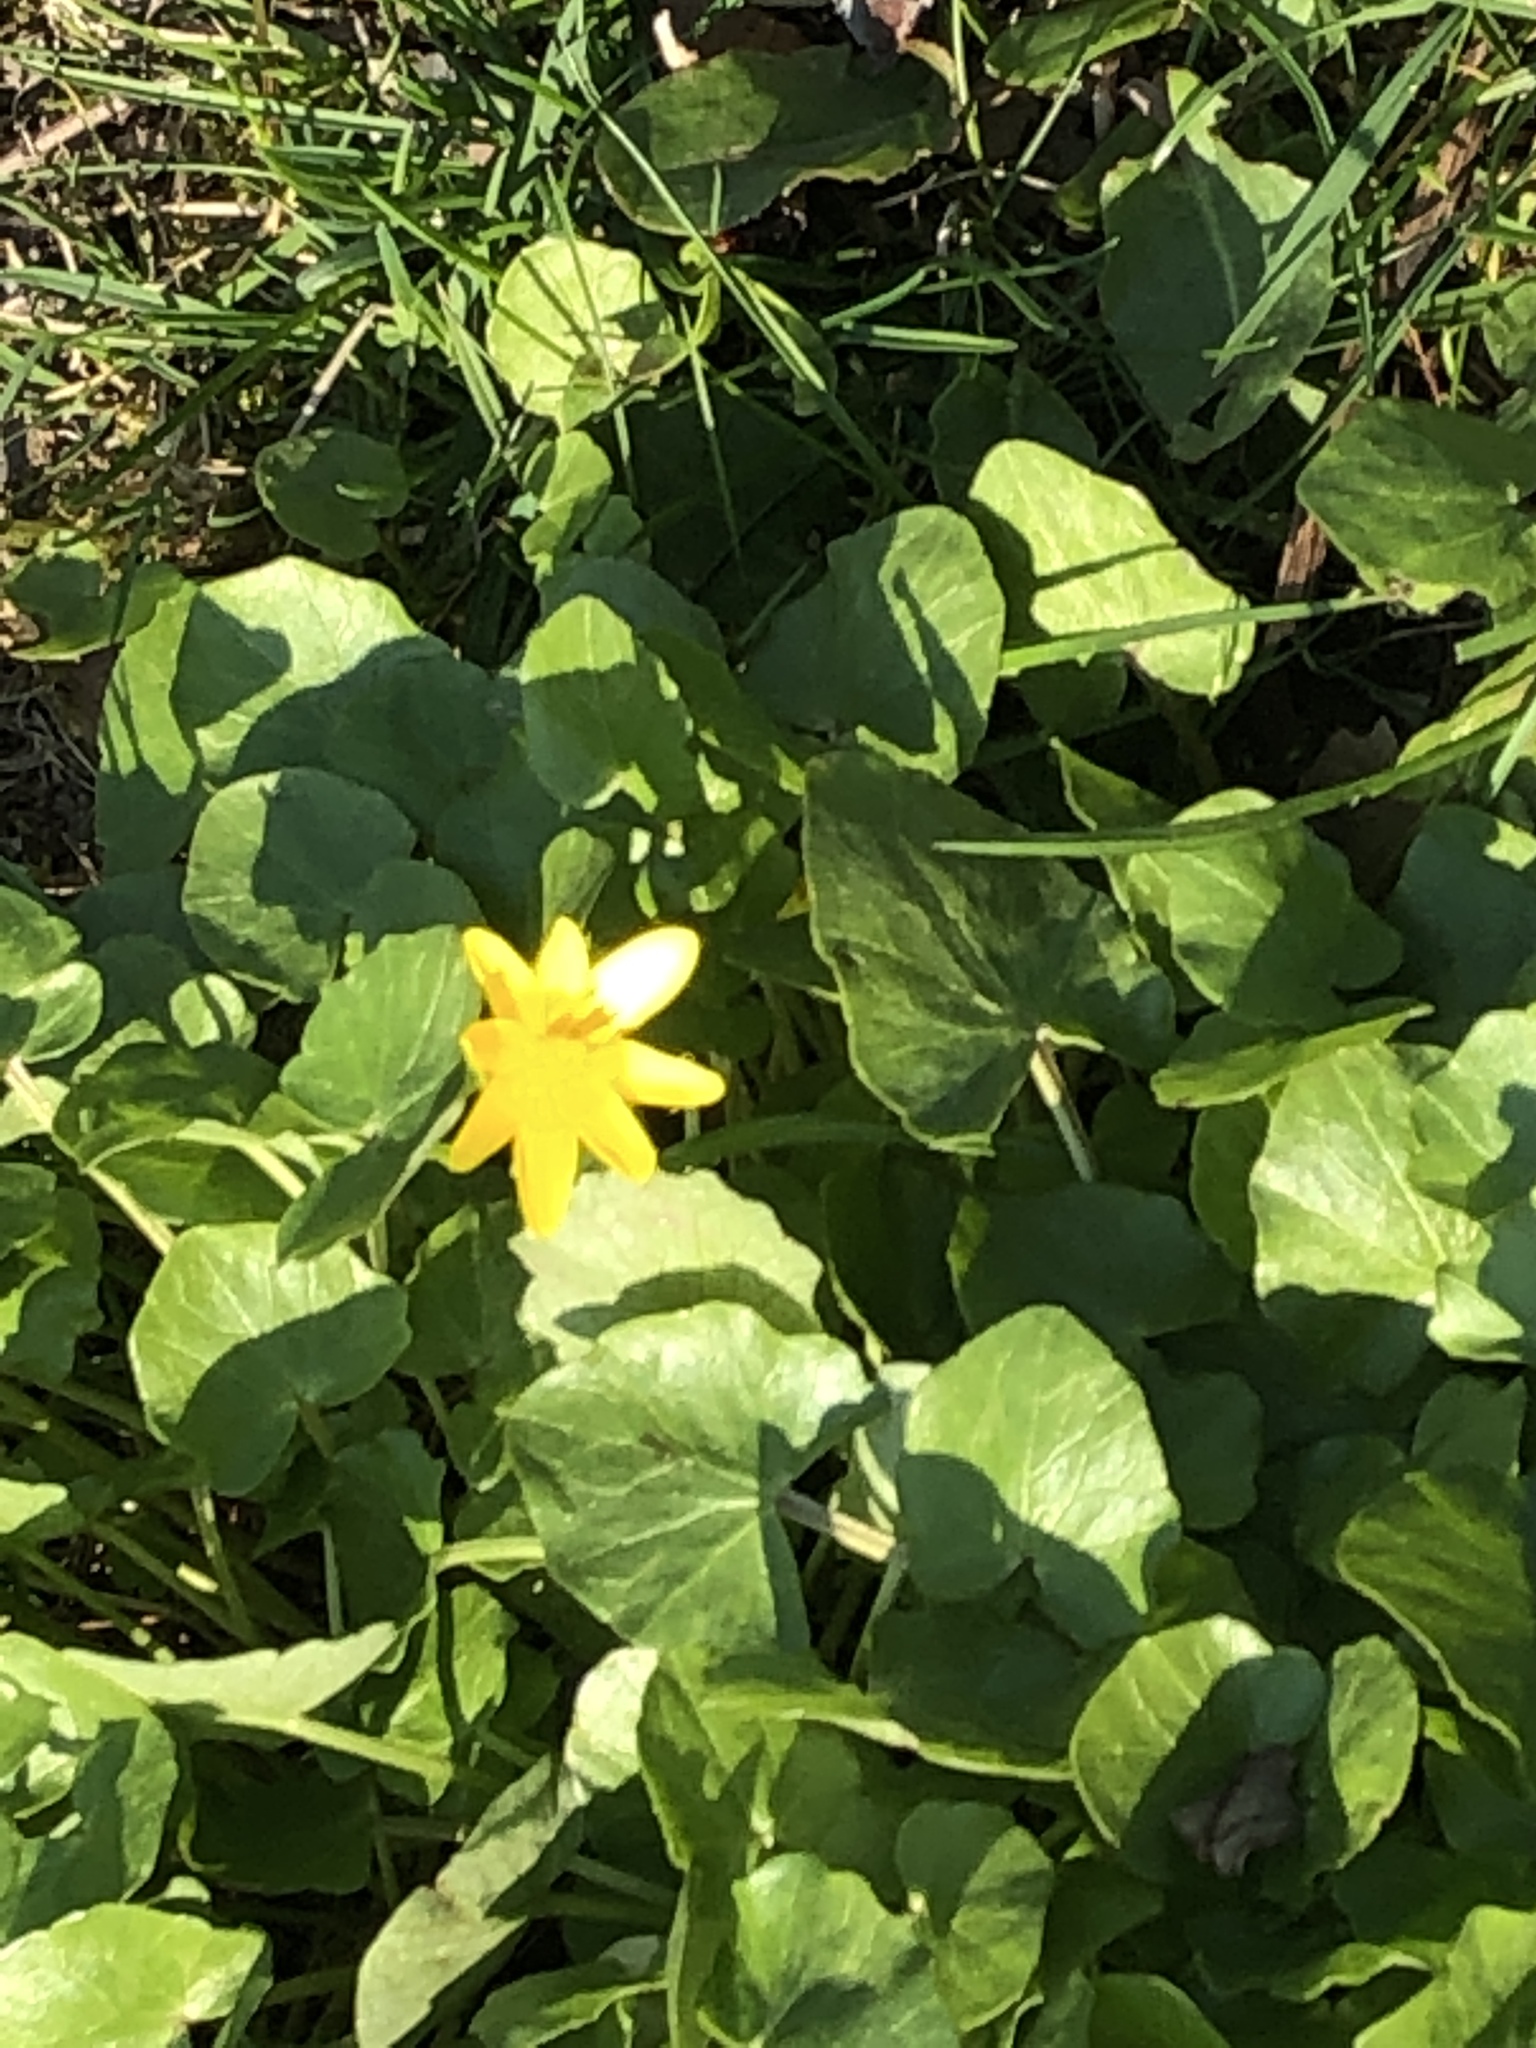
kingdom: Plantae
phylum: Tracheophyta
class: Magnoliopsida
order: Ranunculales
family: Ranunculaceae
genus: Ficaria
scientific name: Ficaria verna
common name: Lesser celandine
